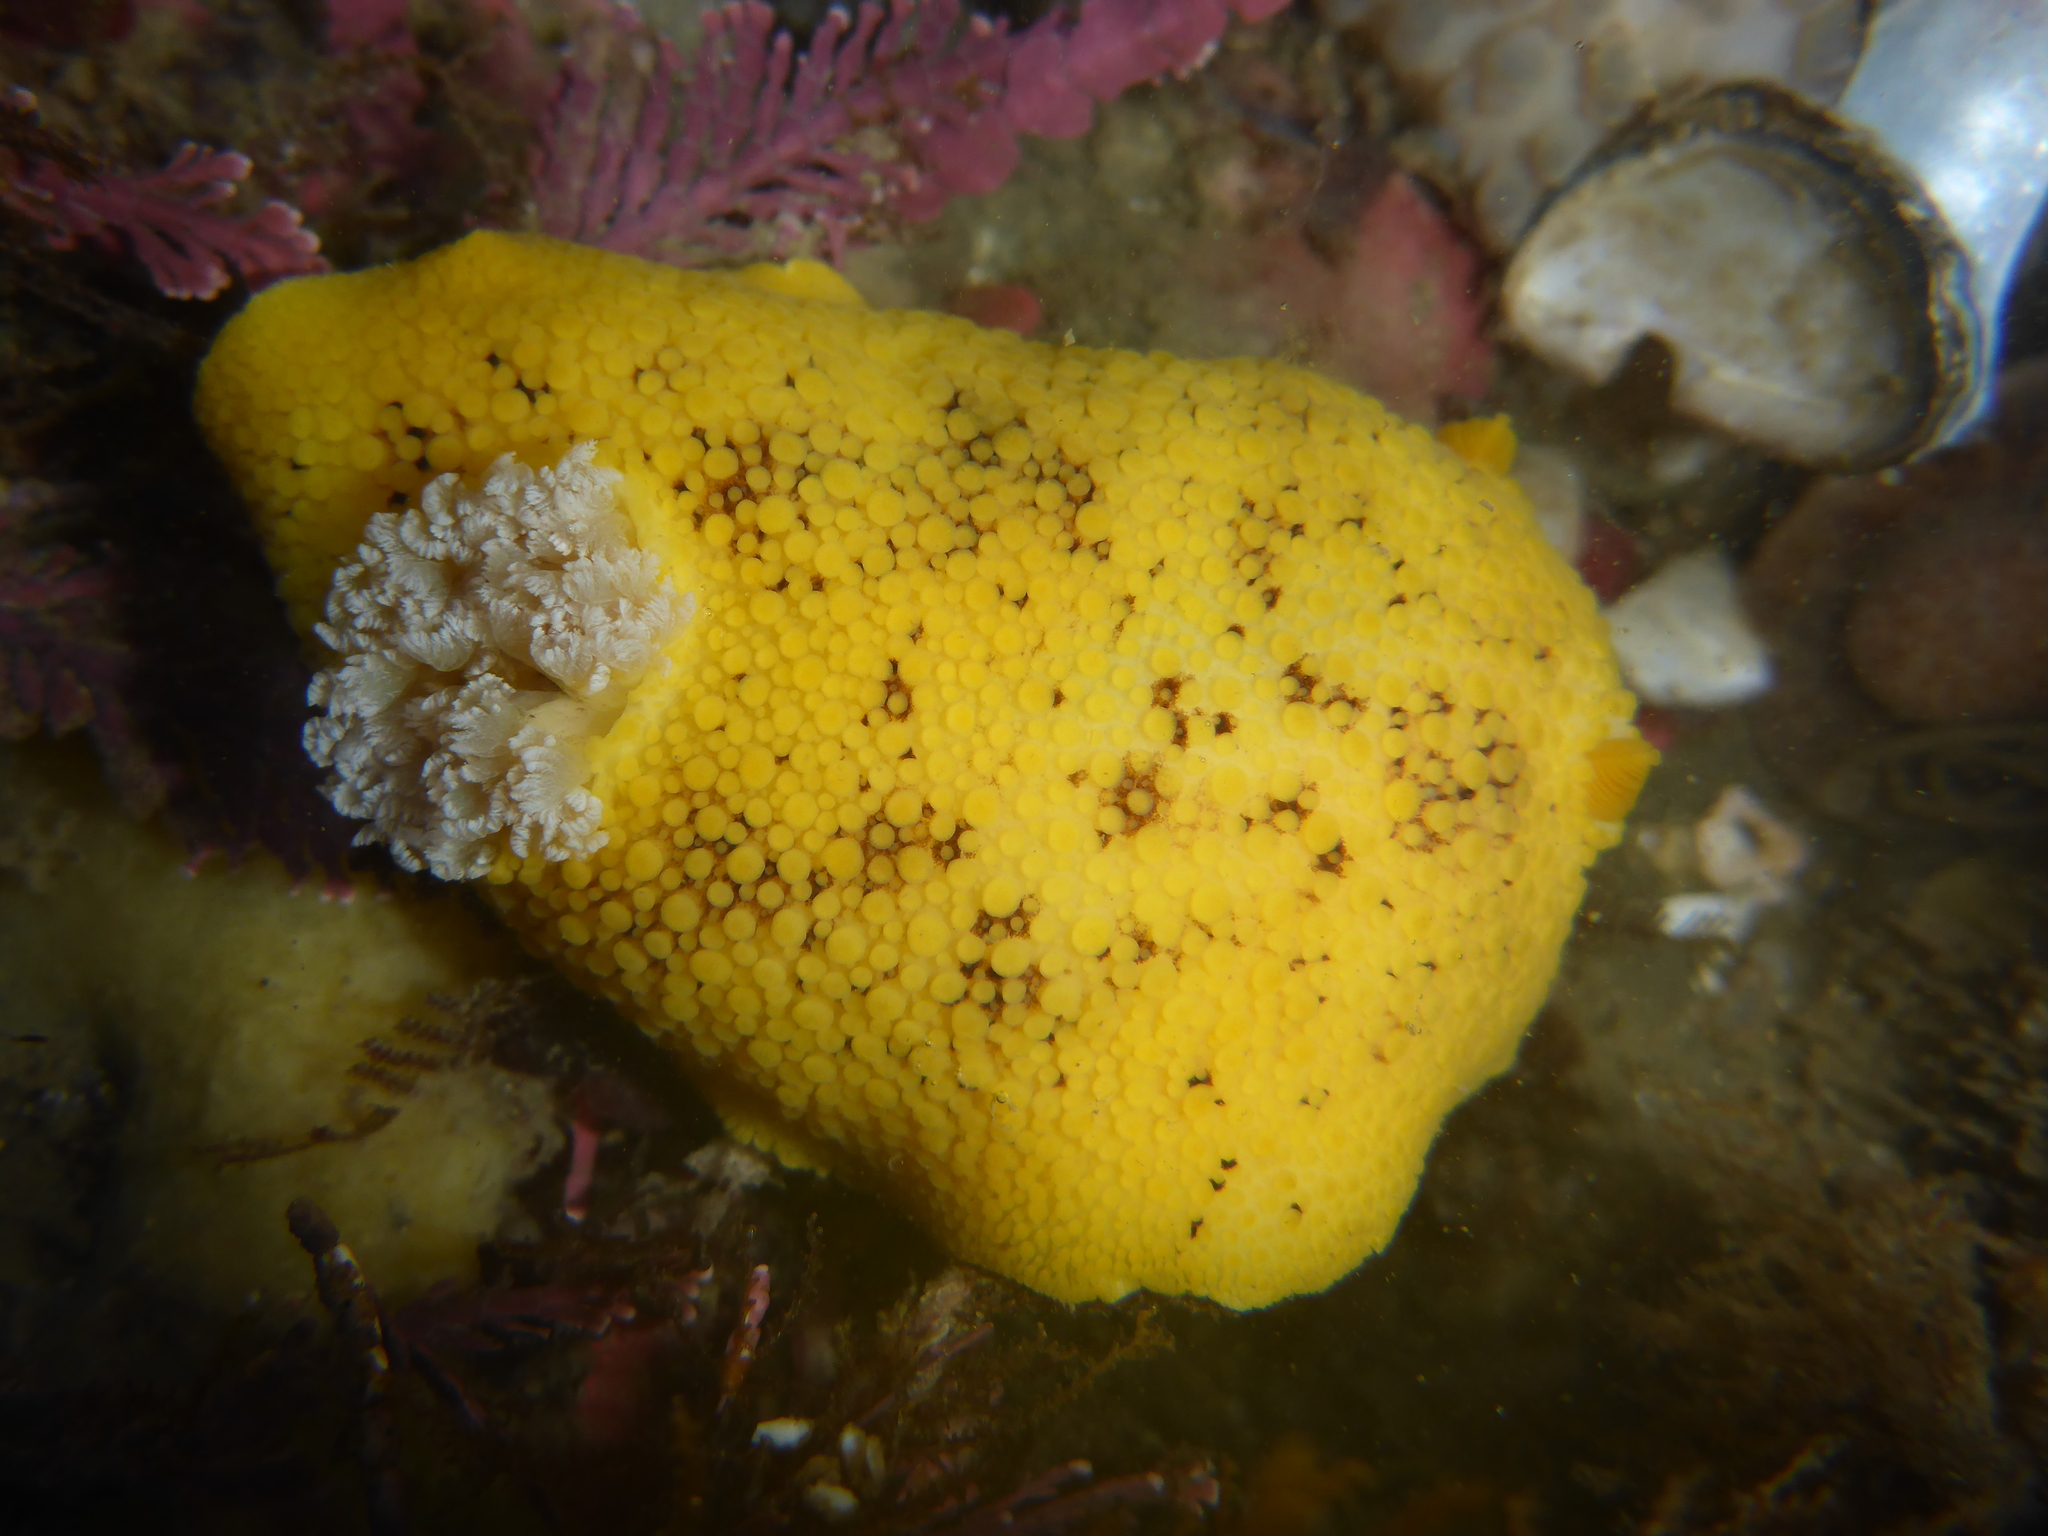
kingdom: Animalia
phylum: Mollusca
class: Gastropoda
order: Nudibranchia
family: Discodorididae
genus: Peltodoris
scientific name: Peltodoris nobilis
